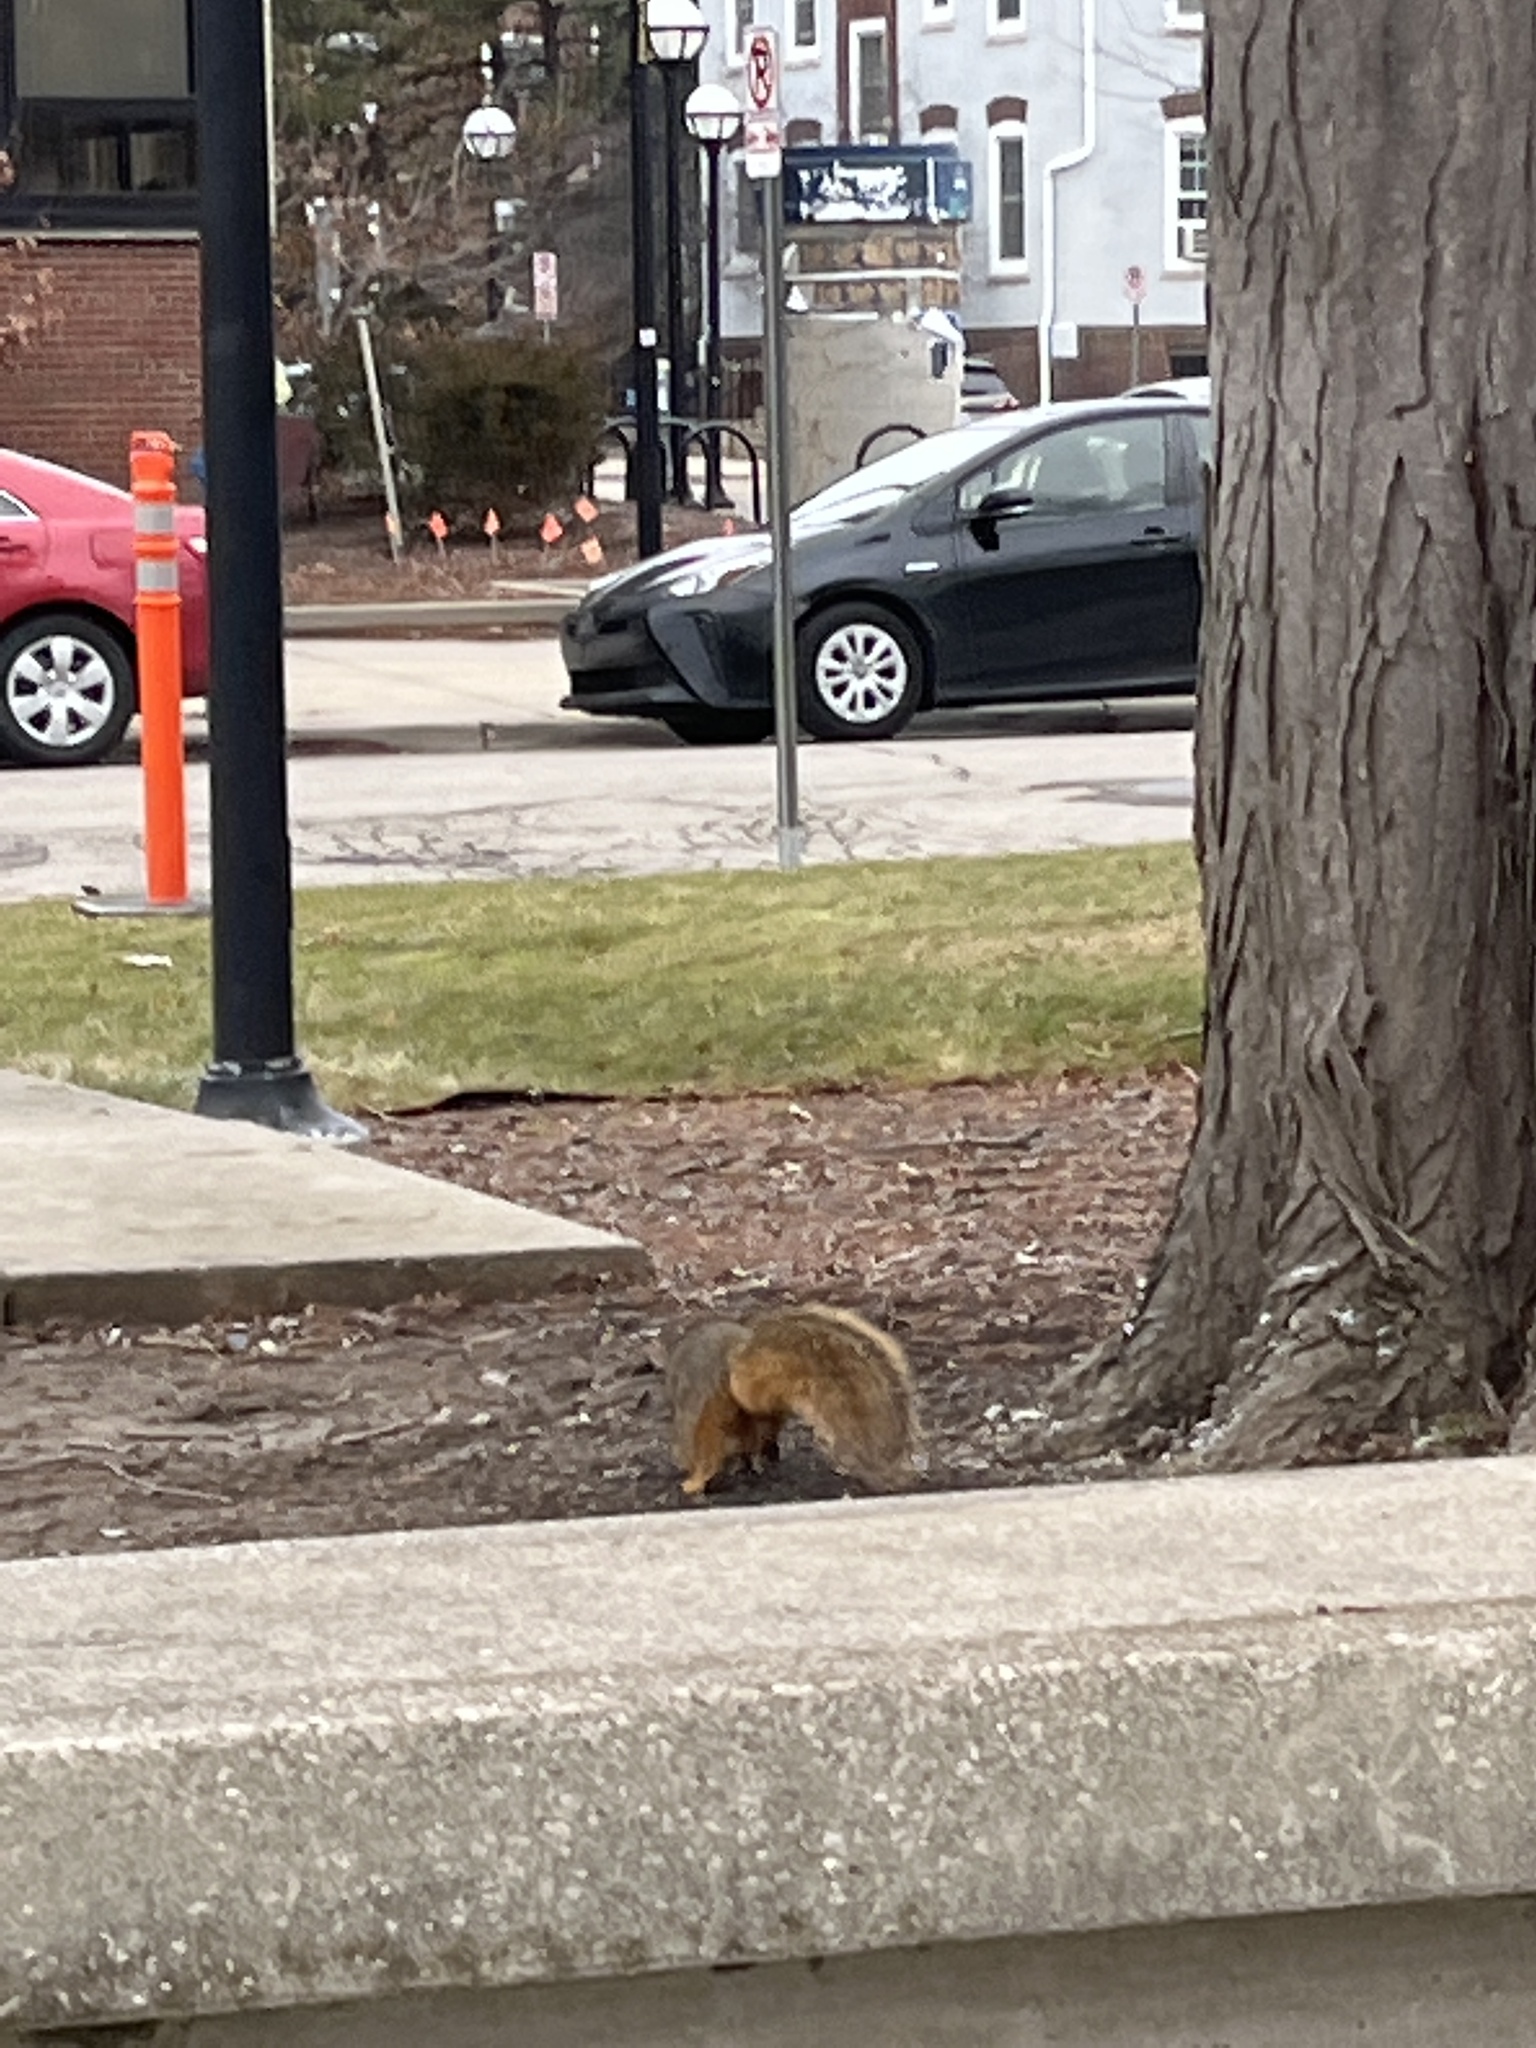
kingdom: Animalia
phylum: Chordata
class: Mammalia
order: Rodentia
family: Sciuridae
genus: Sciurus
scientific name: Sciurus niger
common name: Fox squirrel
